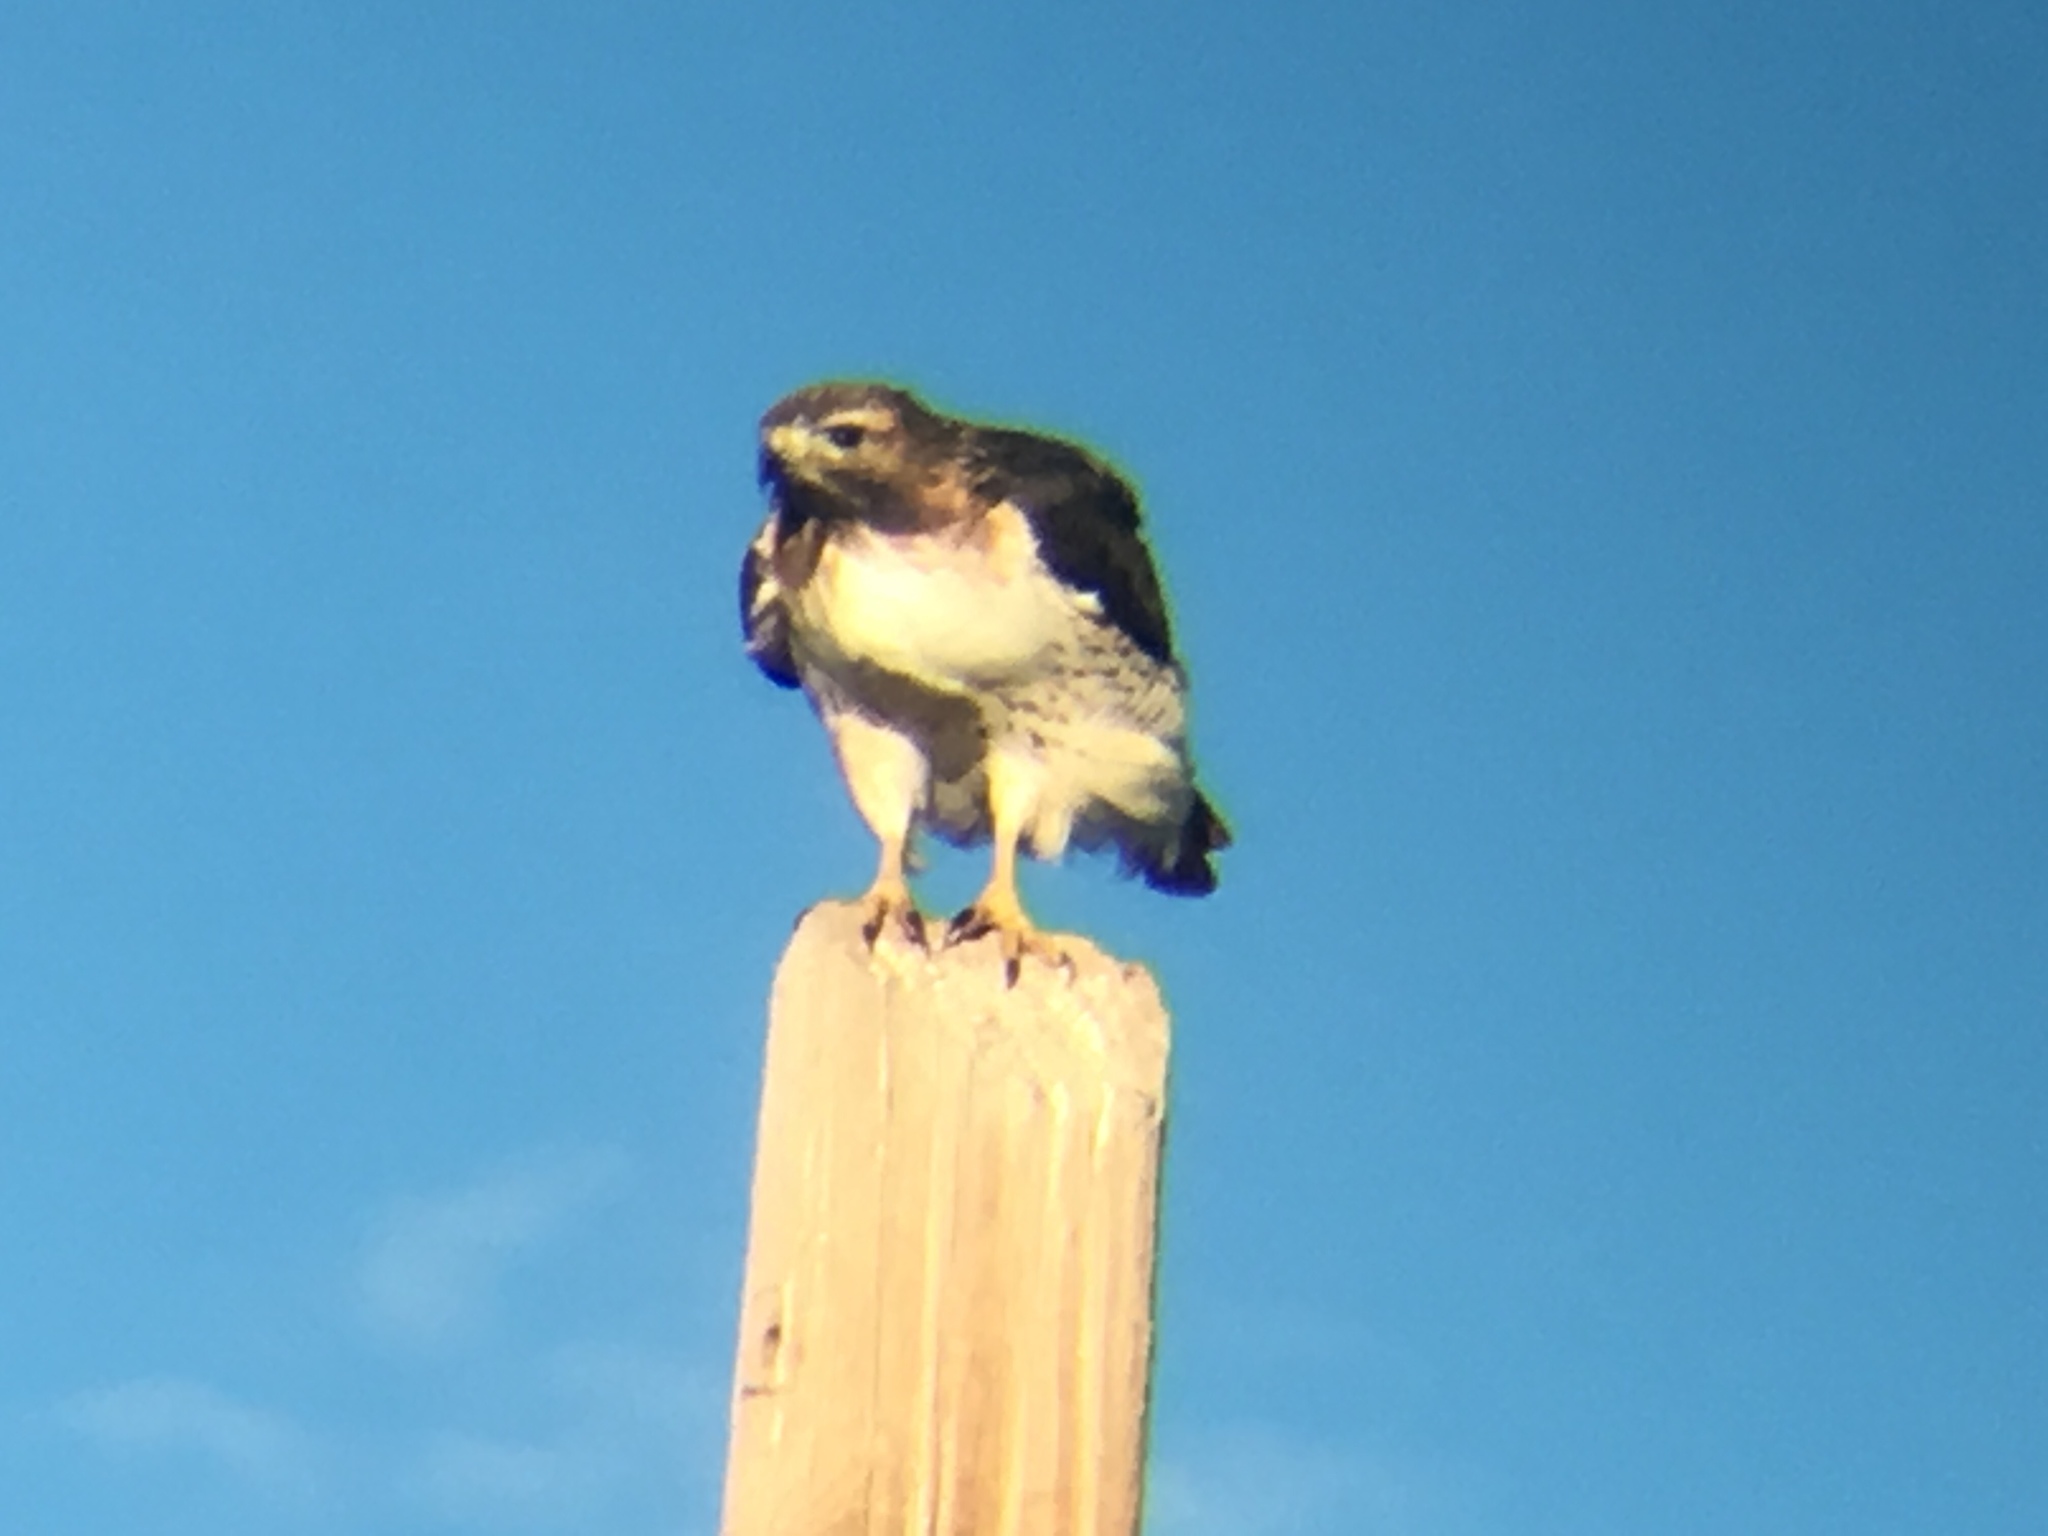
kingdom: Animalia
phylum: Chordata
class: Aves
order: Accipitriformes
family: Accipitridae
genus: Buteo
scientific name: Buteo jamaicensis
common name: Red-tailed hawk
